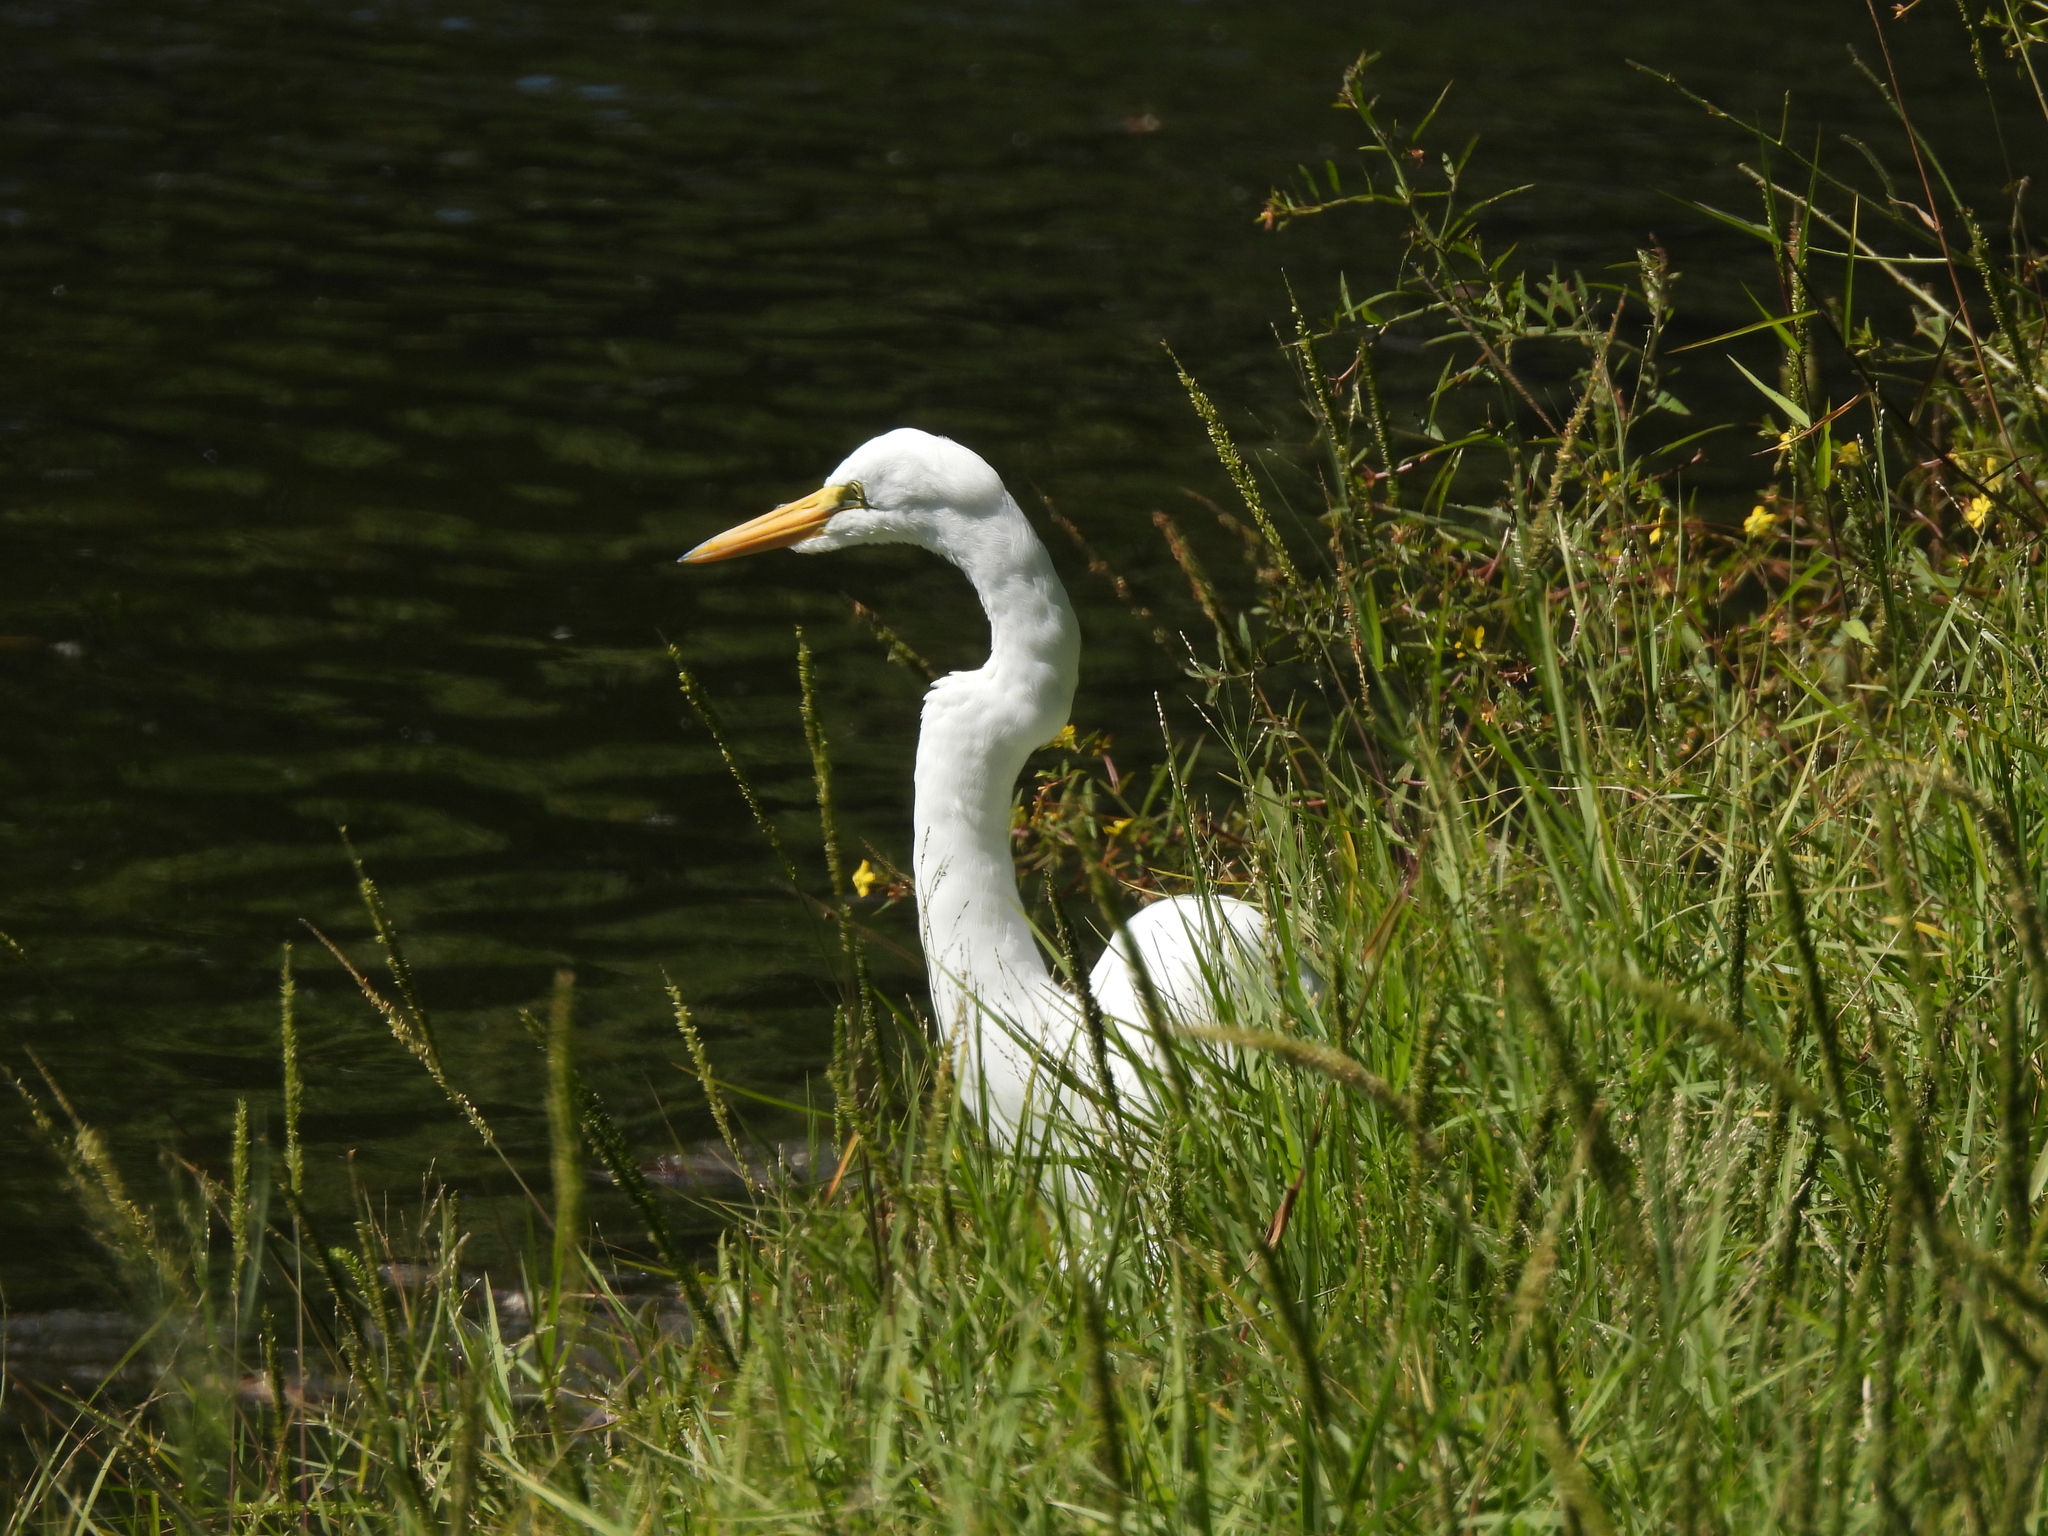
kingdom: Animalia
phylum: Chordata
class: Aves
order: Pelecaniformes
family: Ardeidae
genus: Ardea
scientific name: Ardea alba
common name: Great egret
